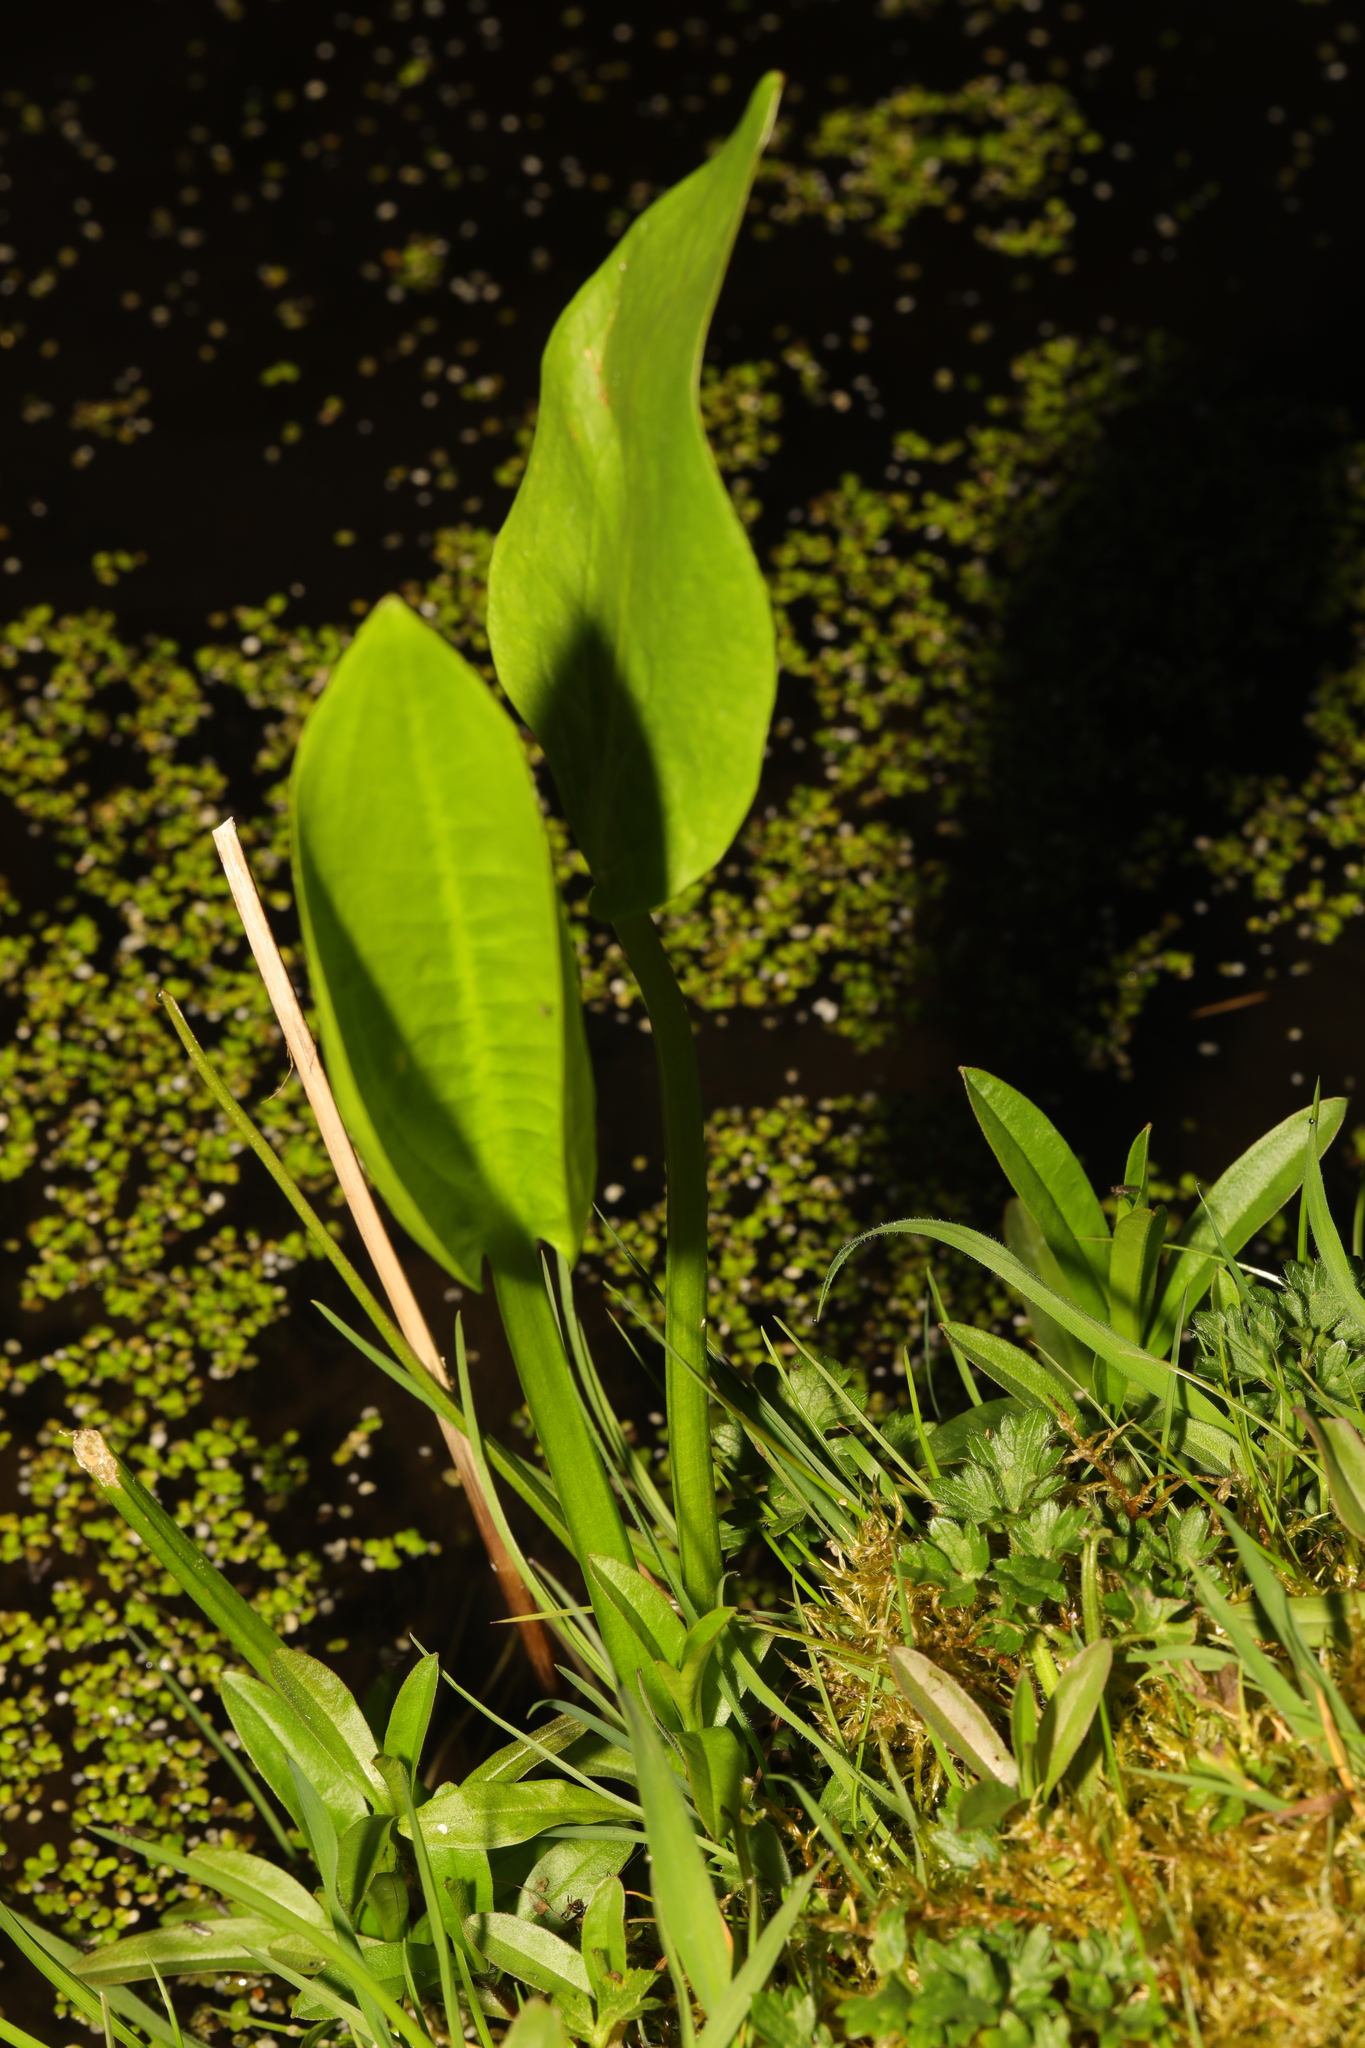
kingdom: Plantae
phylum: Tracheophyta
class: Liliopsida
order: Alismatales
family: Alismataceae
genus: Alisma
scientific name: Alisma plantago-aquatica
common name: Water-plantain
